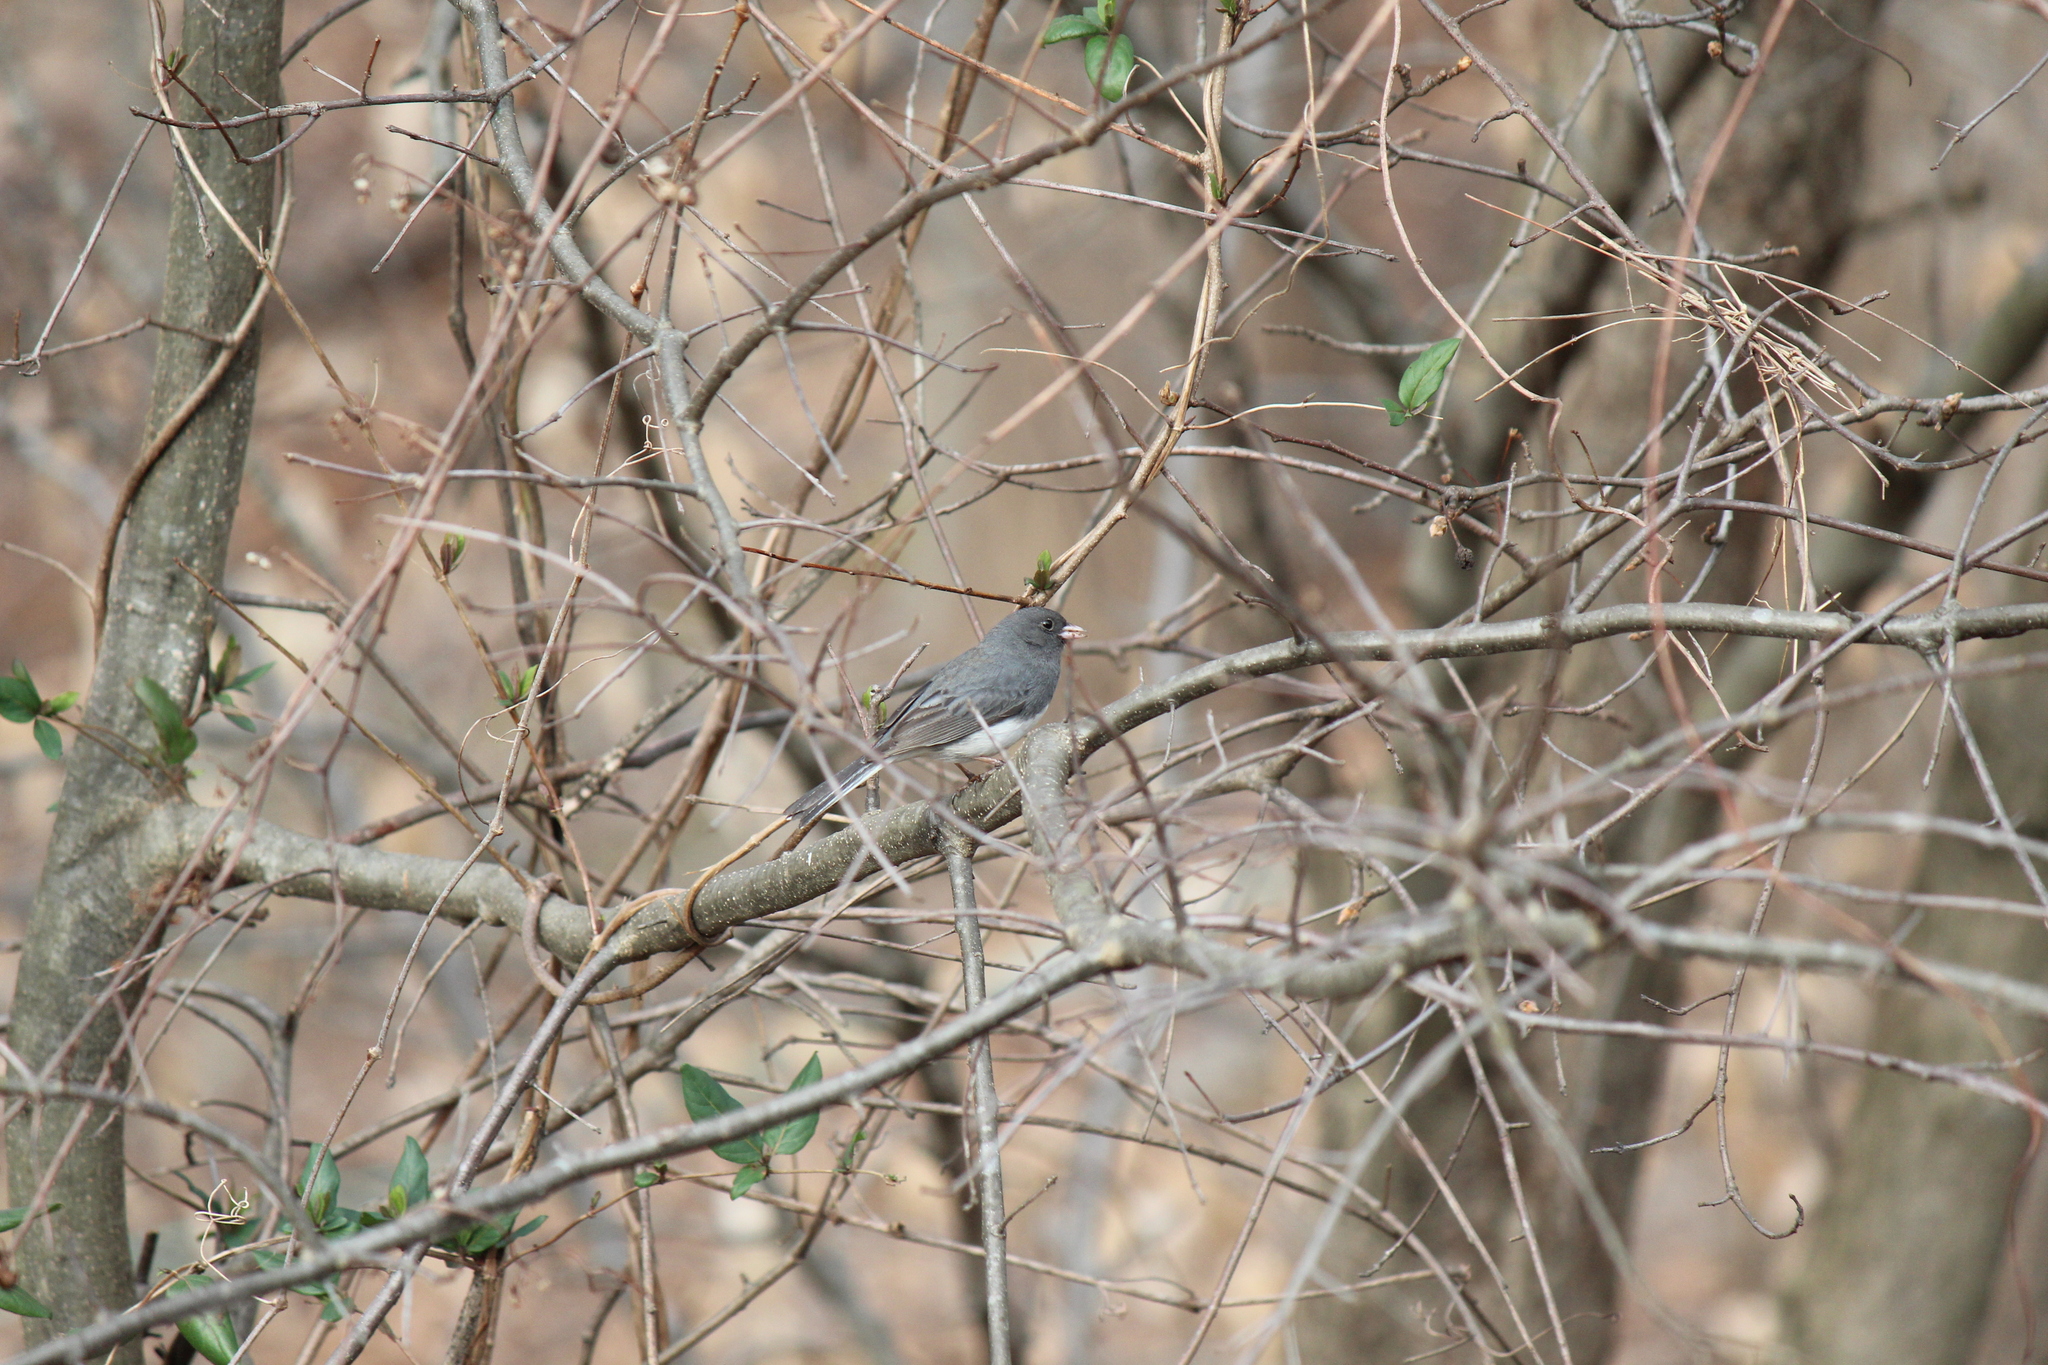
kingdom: Animalia
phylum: Chordata
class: Aves
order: Passeriformes
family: Passerellidae
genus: Junco
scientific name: Junco hyemalis
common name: Dark-eyed junco
